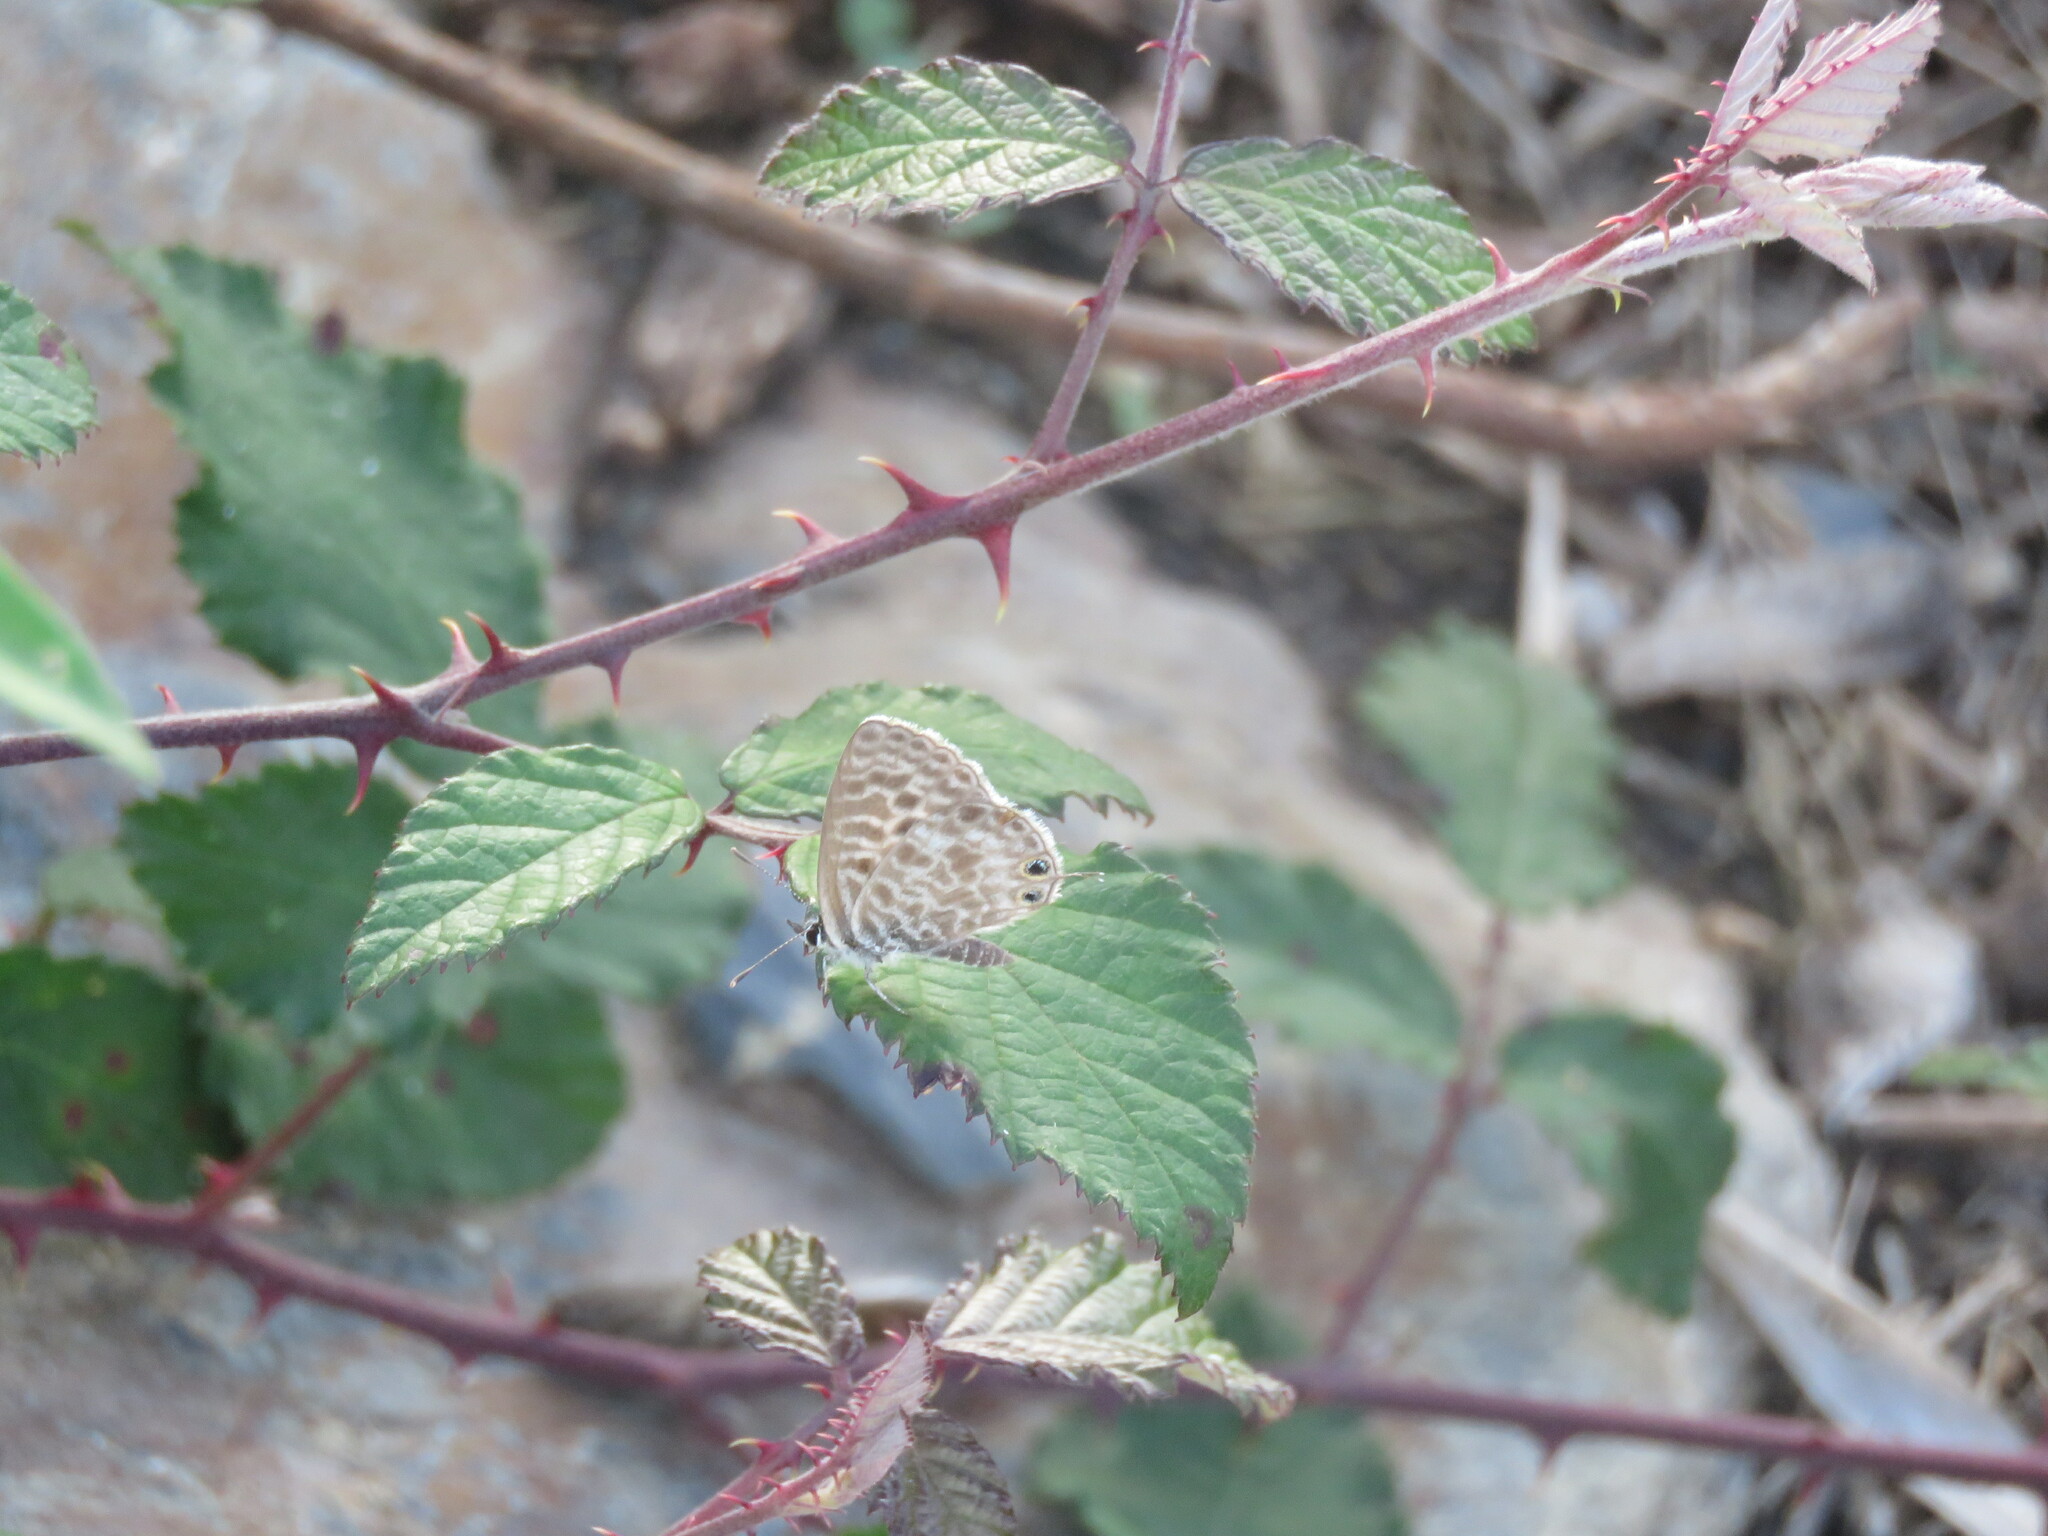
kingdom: Animalia
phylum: Arthropoda
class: Insecta
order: Lepidoptera
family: Lycaenidae
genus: Leptotes
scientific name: Leptotes pirithous
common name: Lang's short-tailed blue
